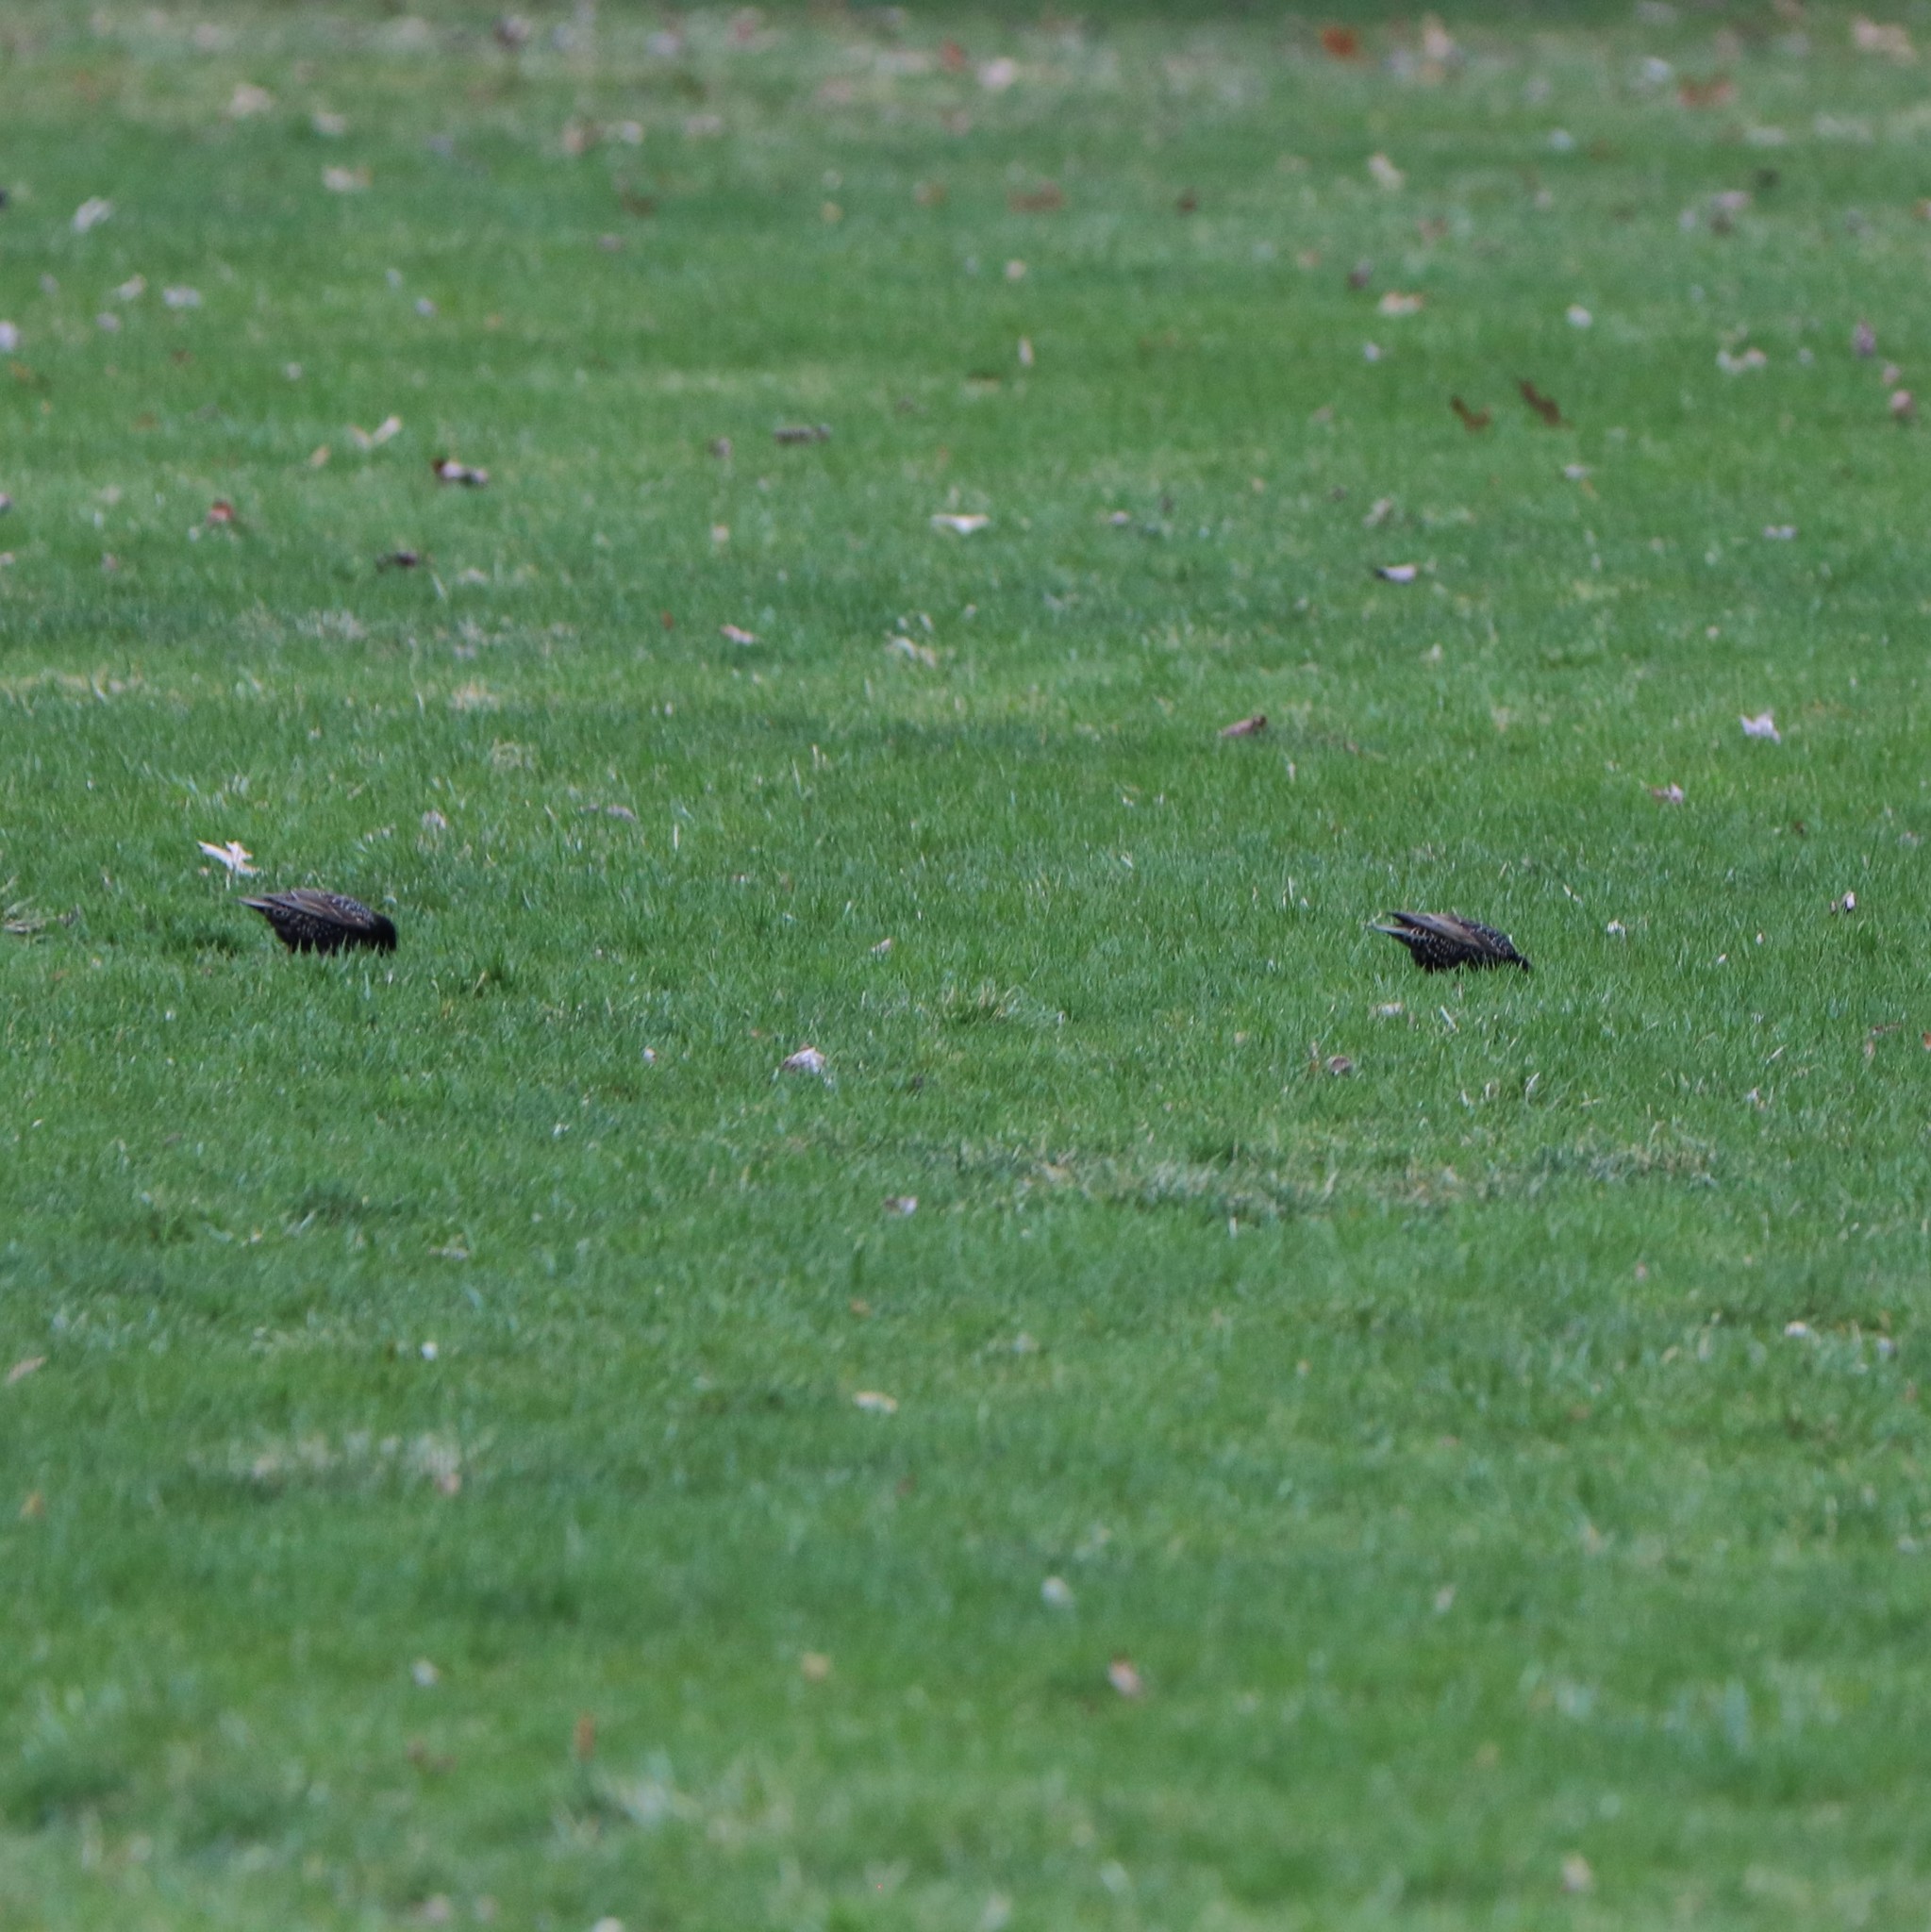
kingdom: Animalia
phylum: Chordata
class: Aves
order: Passeriformes
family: Sturnidae
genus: Sturnus
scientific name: Sturnus vulgaris
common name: Common starling
